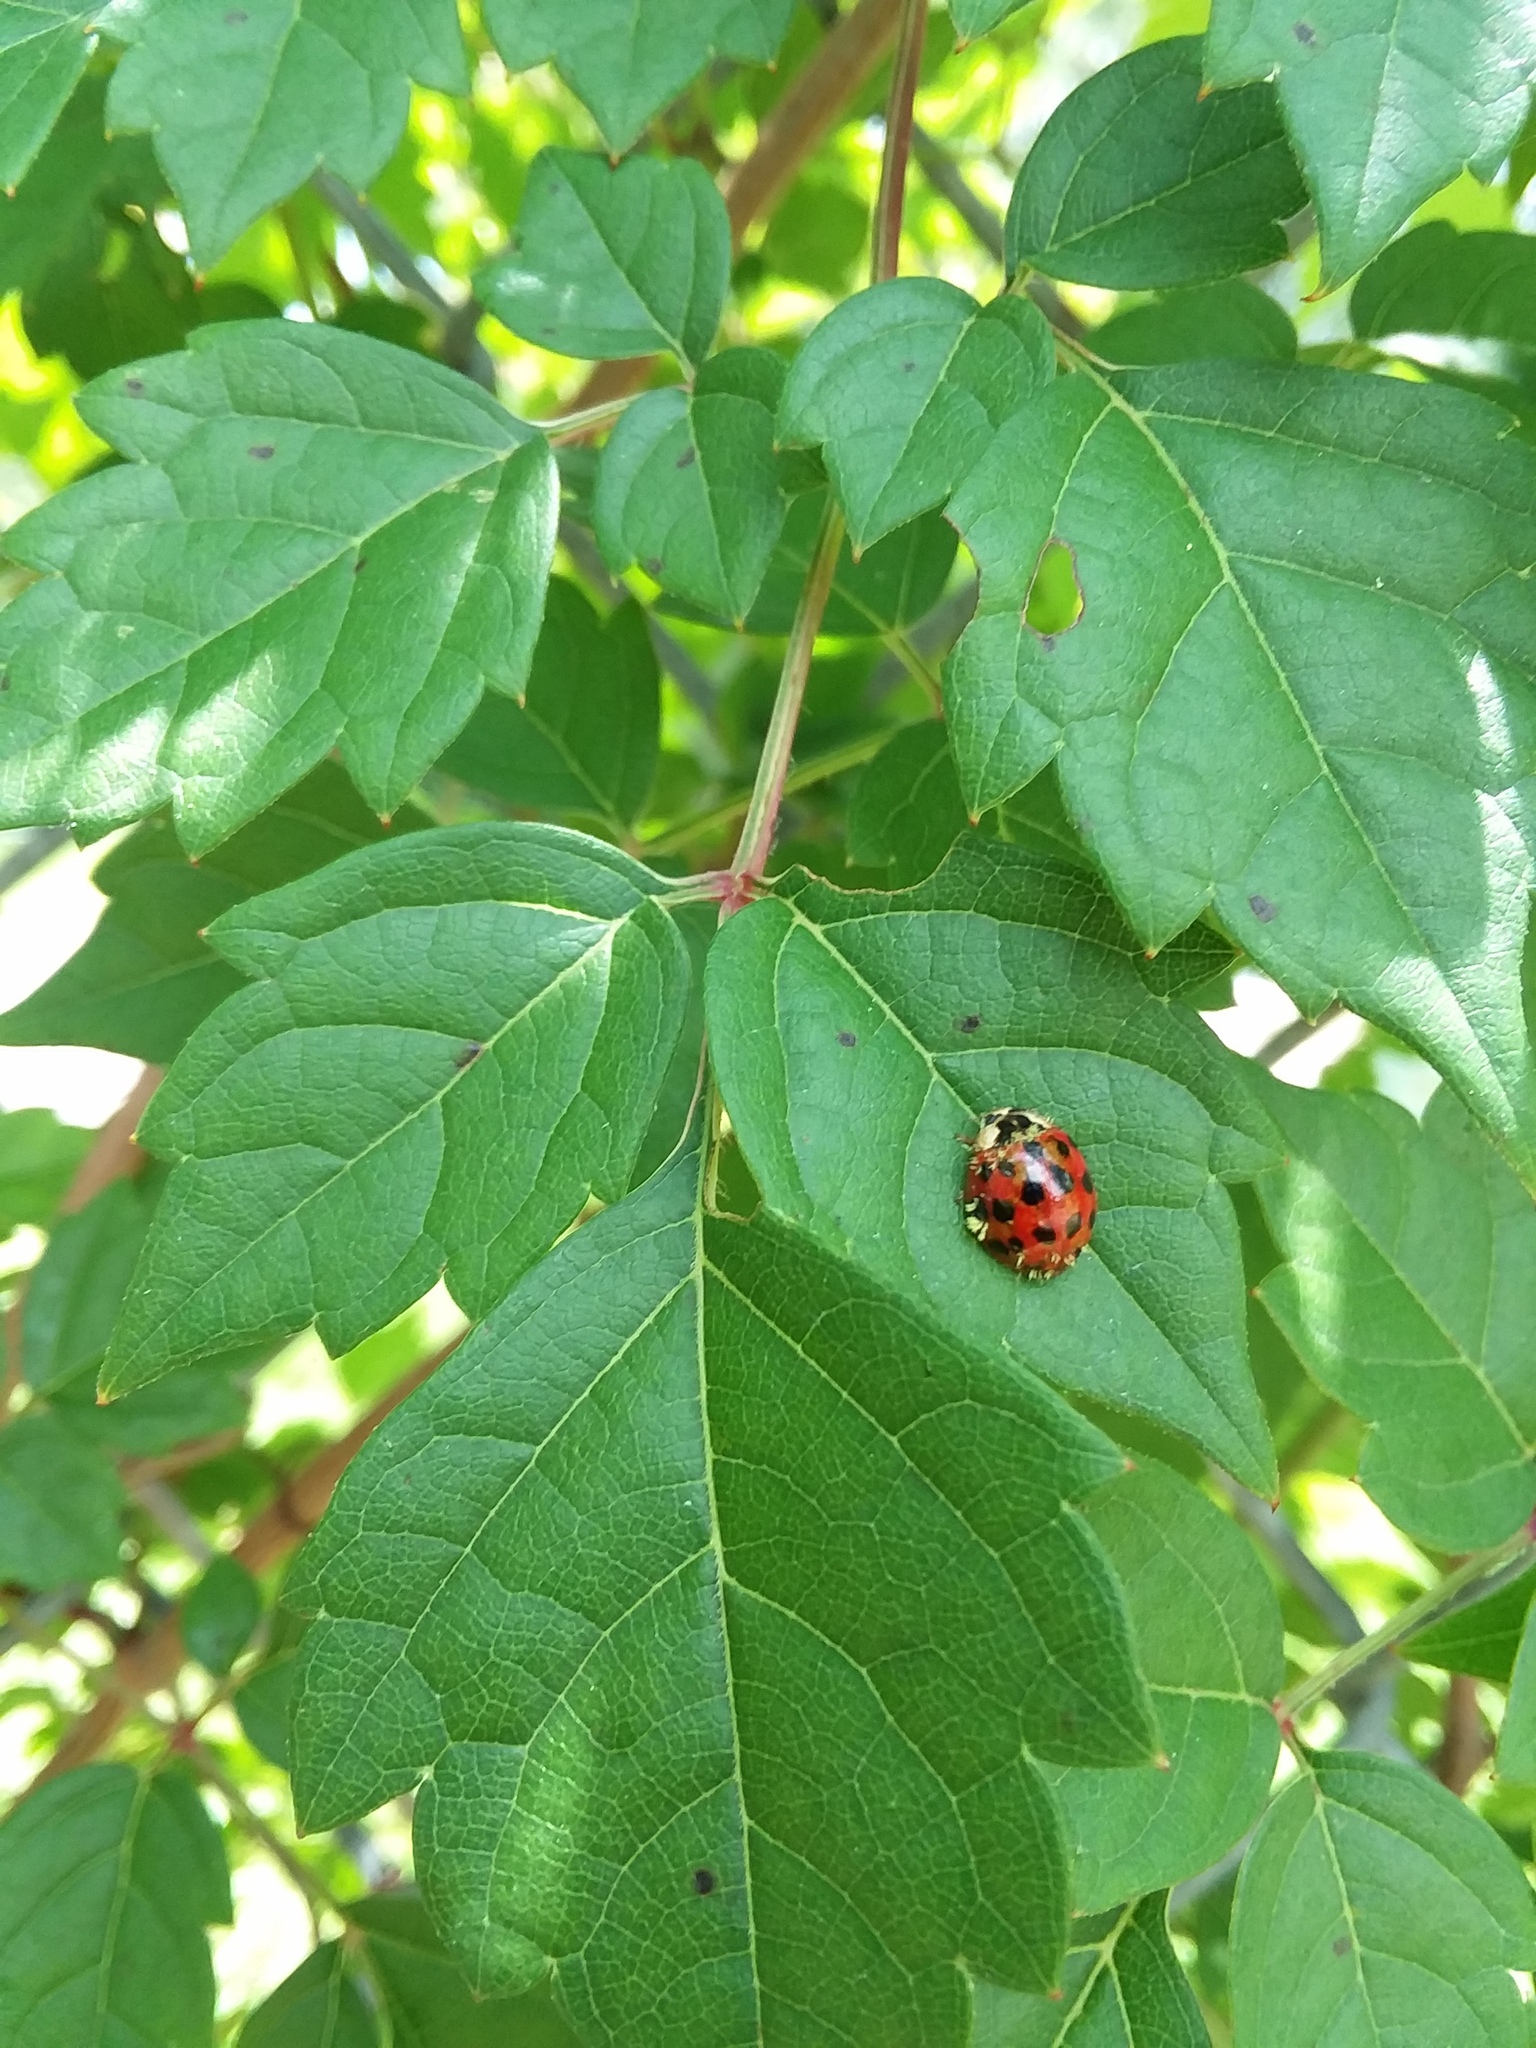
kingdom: Animalia
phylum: Arthropoda
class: Insecta
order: Coleoptera
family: Coccinellidae
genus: Harmonia
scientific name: Harmonia axyridis
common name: Harlequin ladybird
